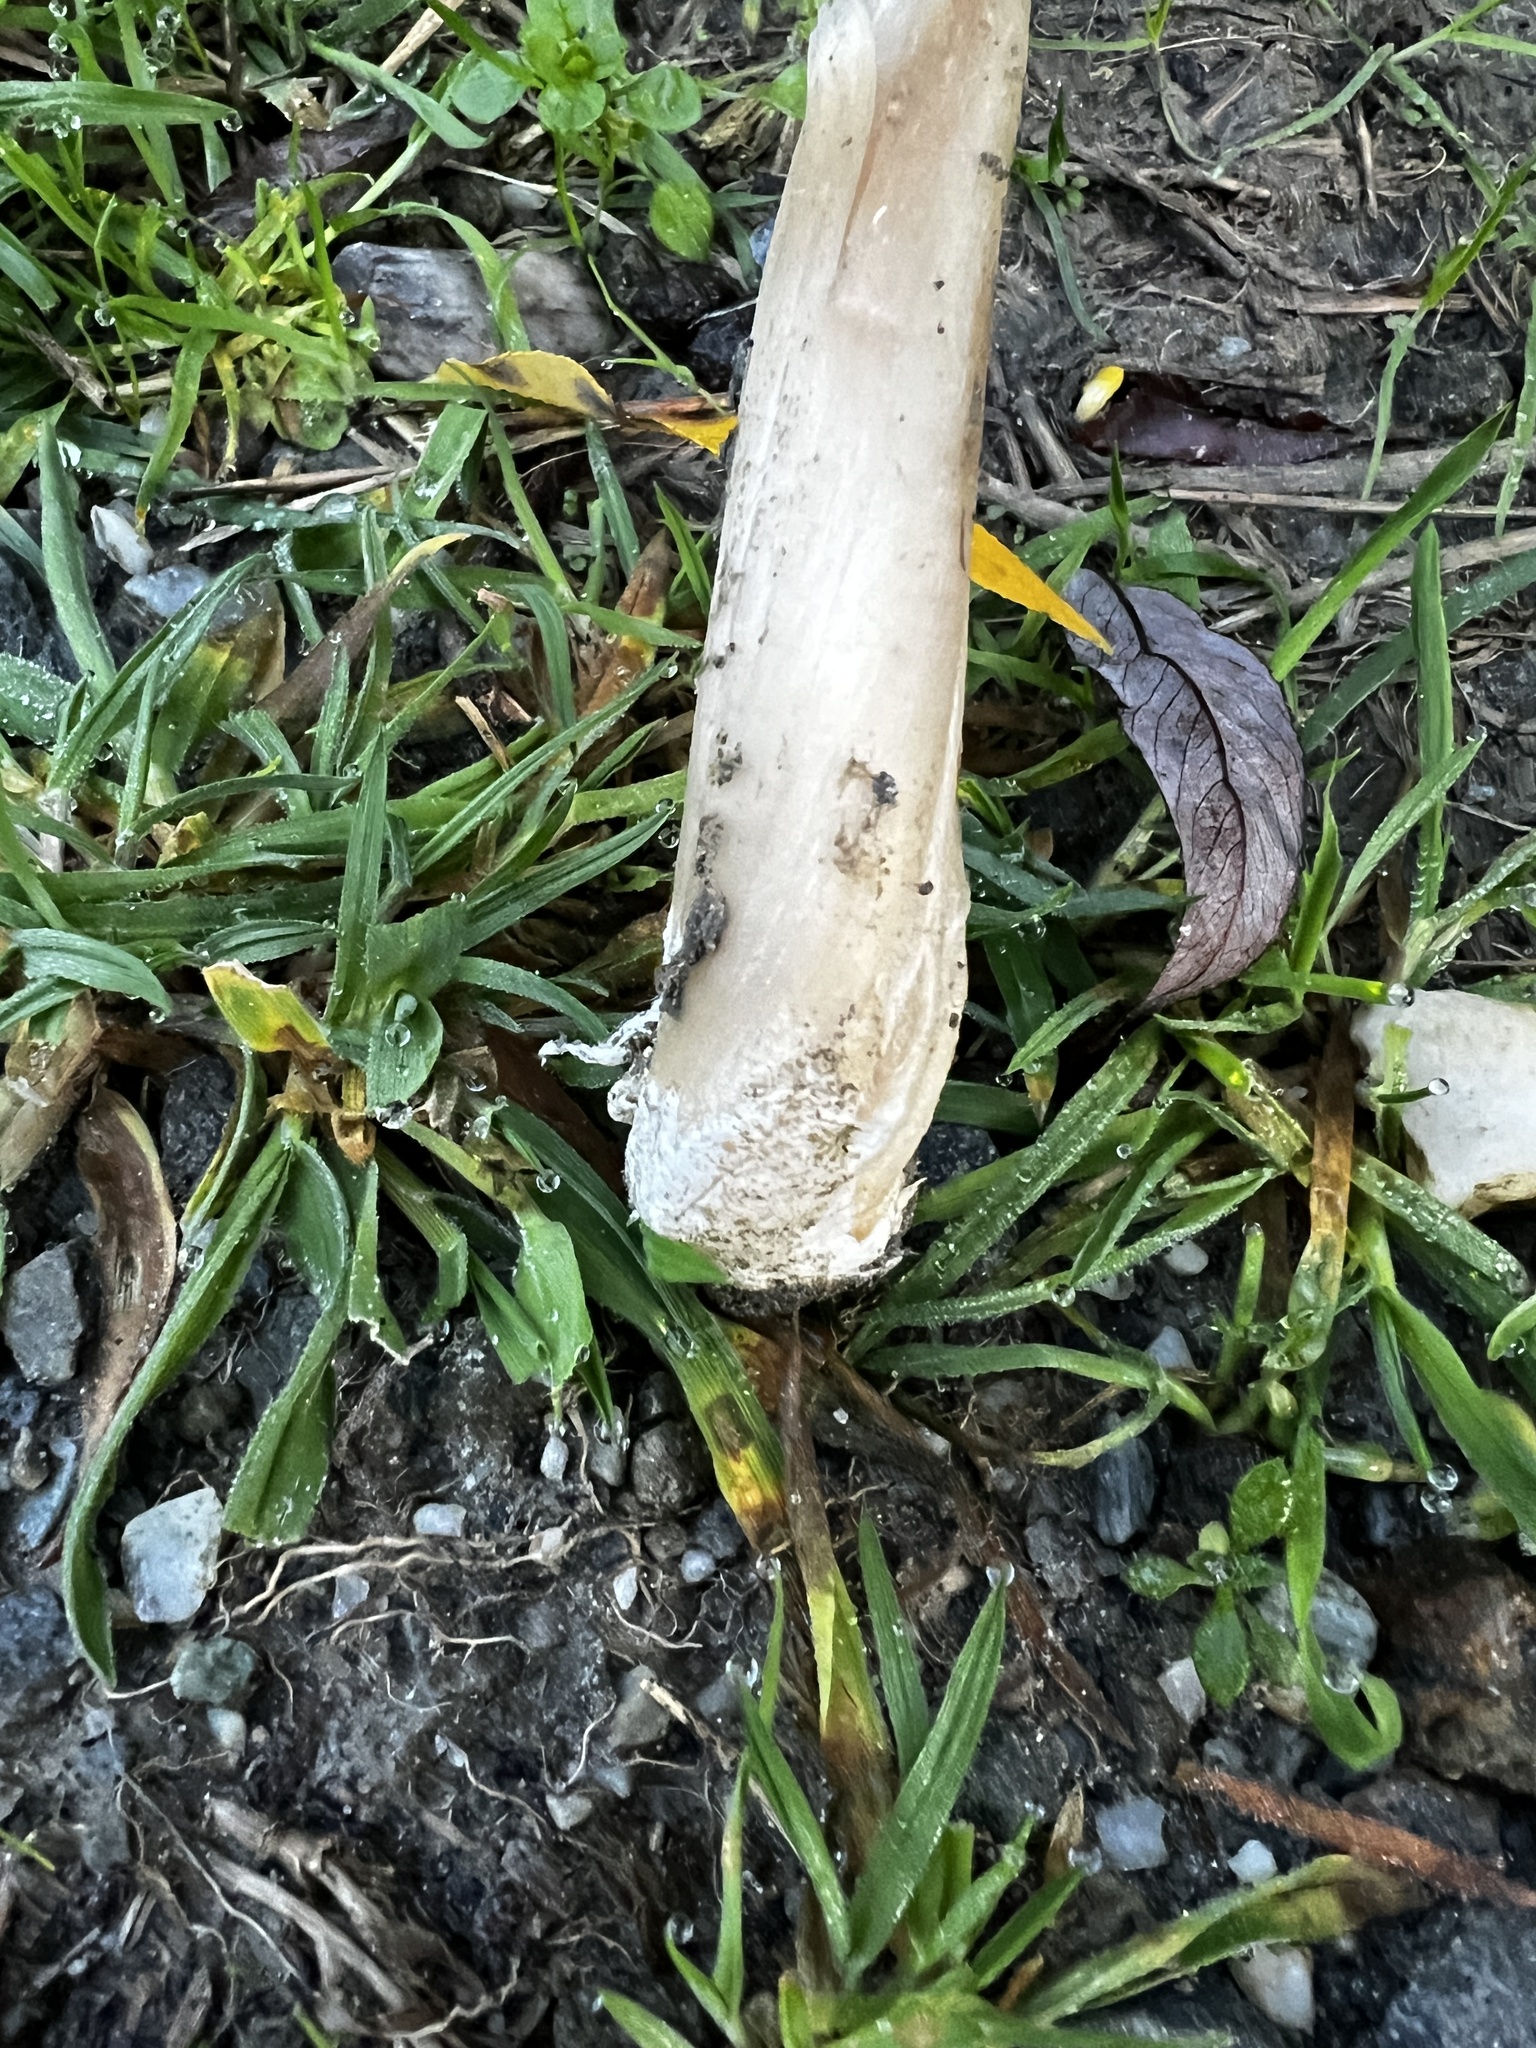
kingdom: Fungi
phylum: Basidiomycota
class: Agaricomycetes
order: Agaricales
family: Pluteaceae
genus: Volvopluteus
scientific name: Volvopluteus gloiocephalus
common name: Stubble rosegill
